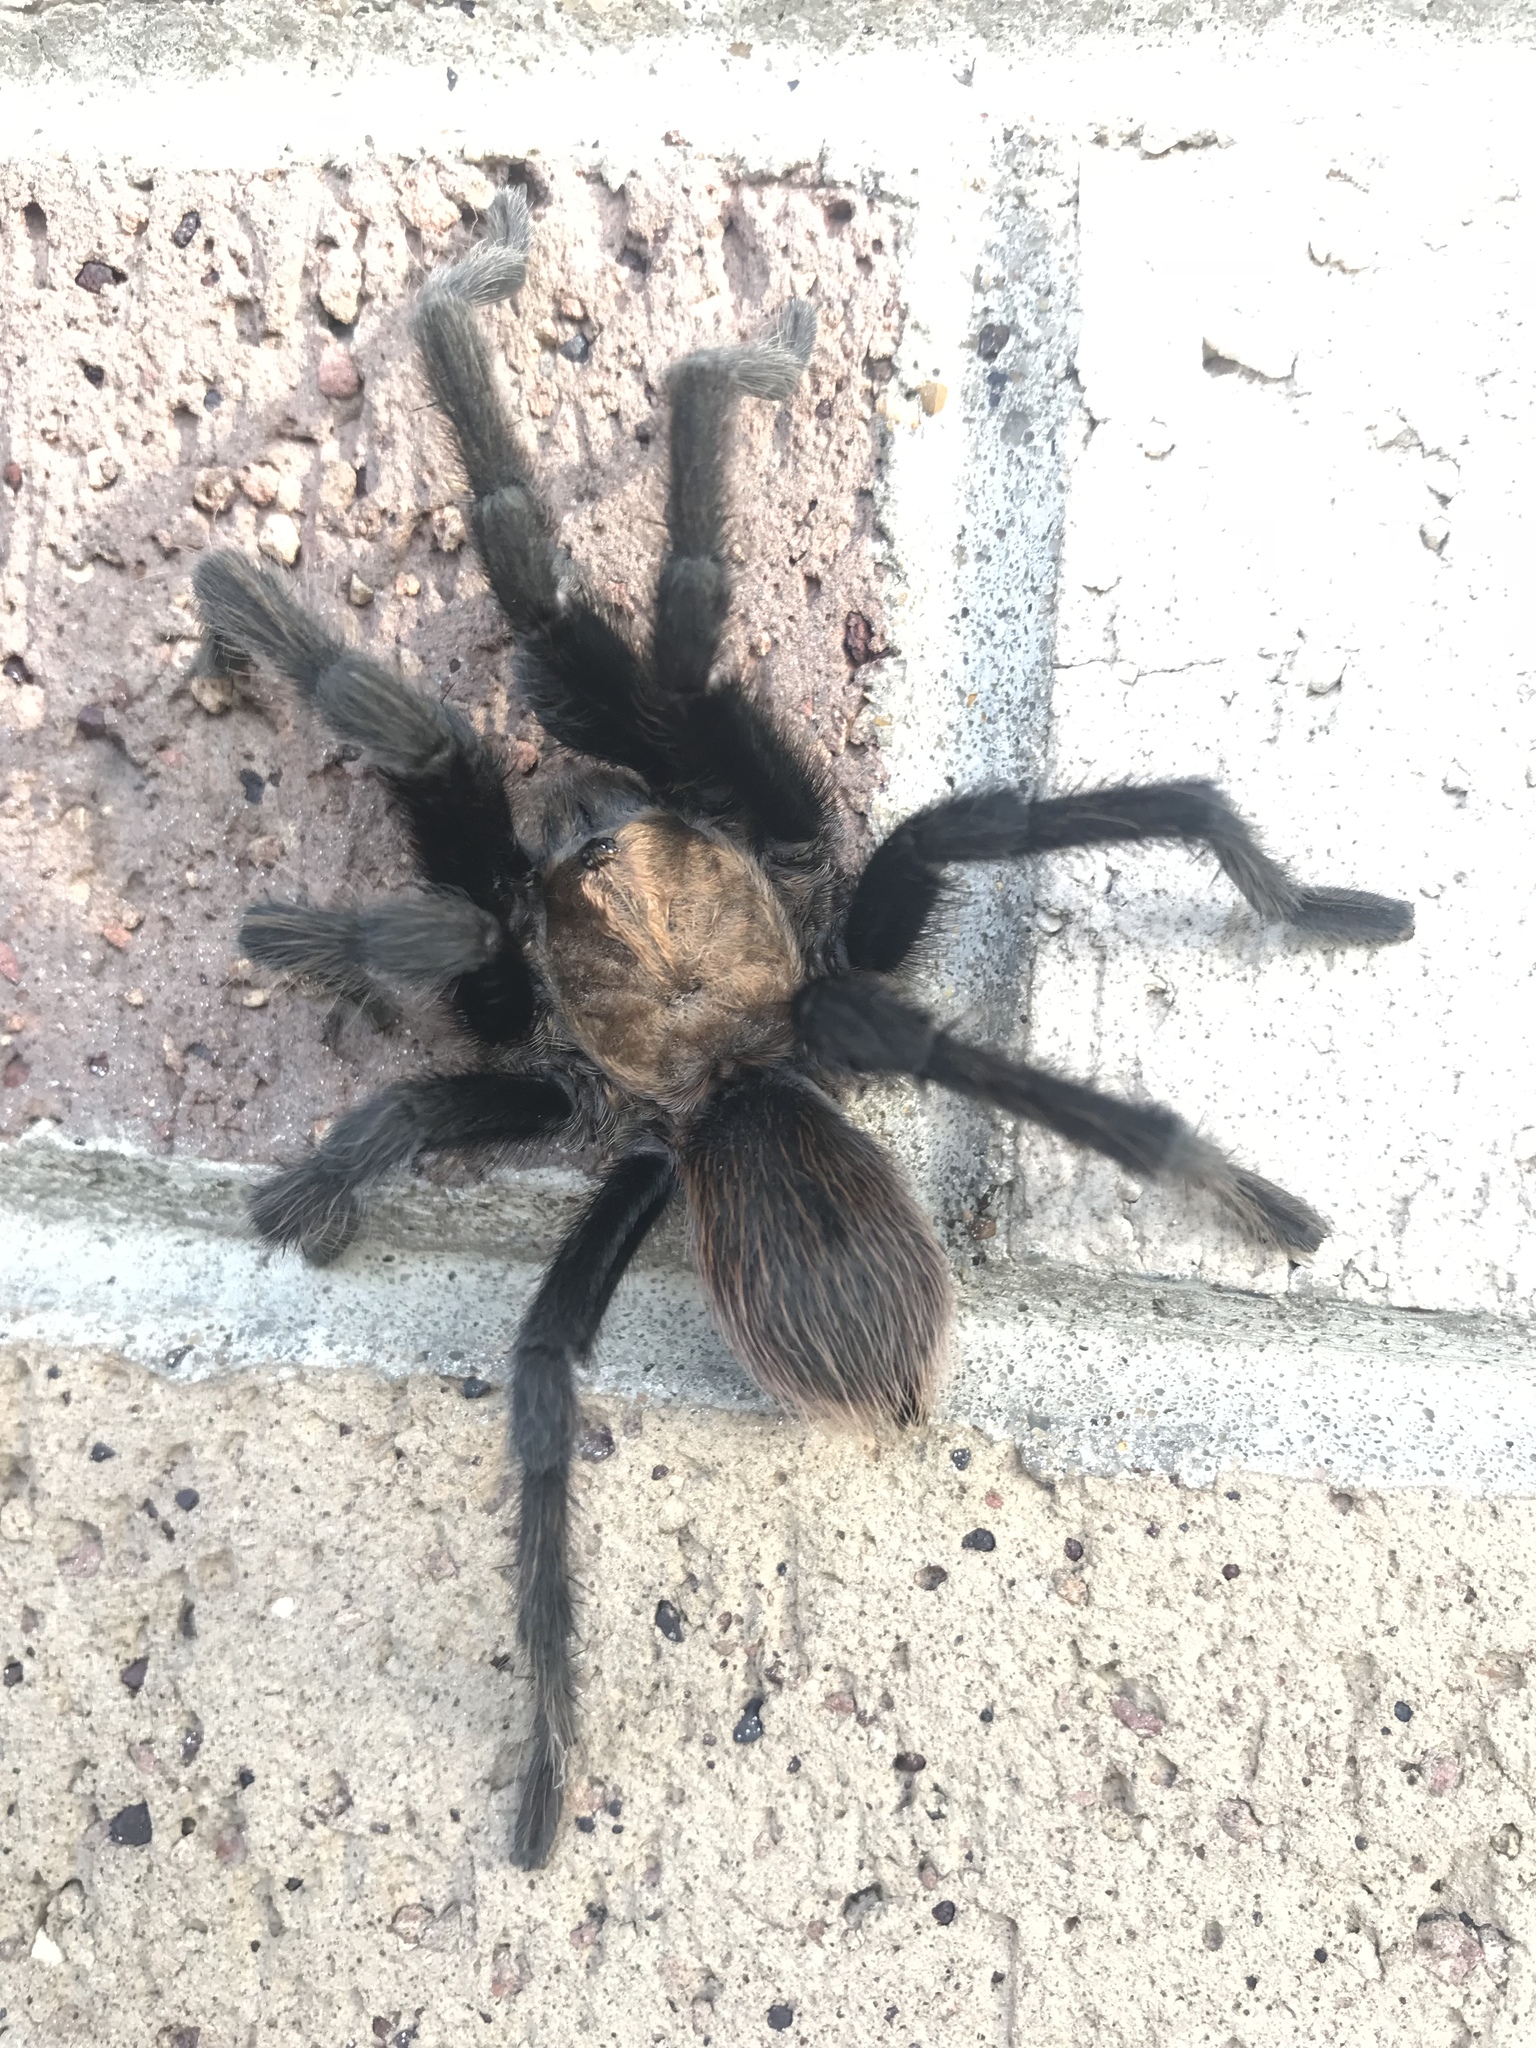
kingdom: Animalia
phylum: Arthropoda
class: Arachnida
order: Araneae
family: Theraphosidae
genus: Aphonopelma
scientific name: Aphonopelma hentzi
